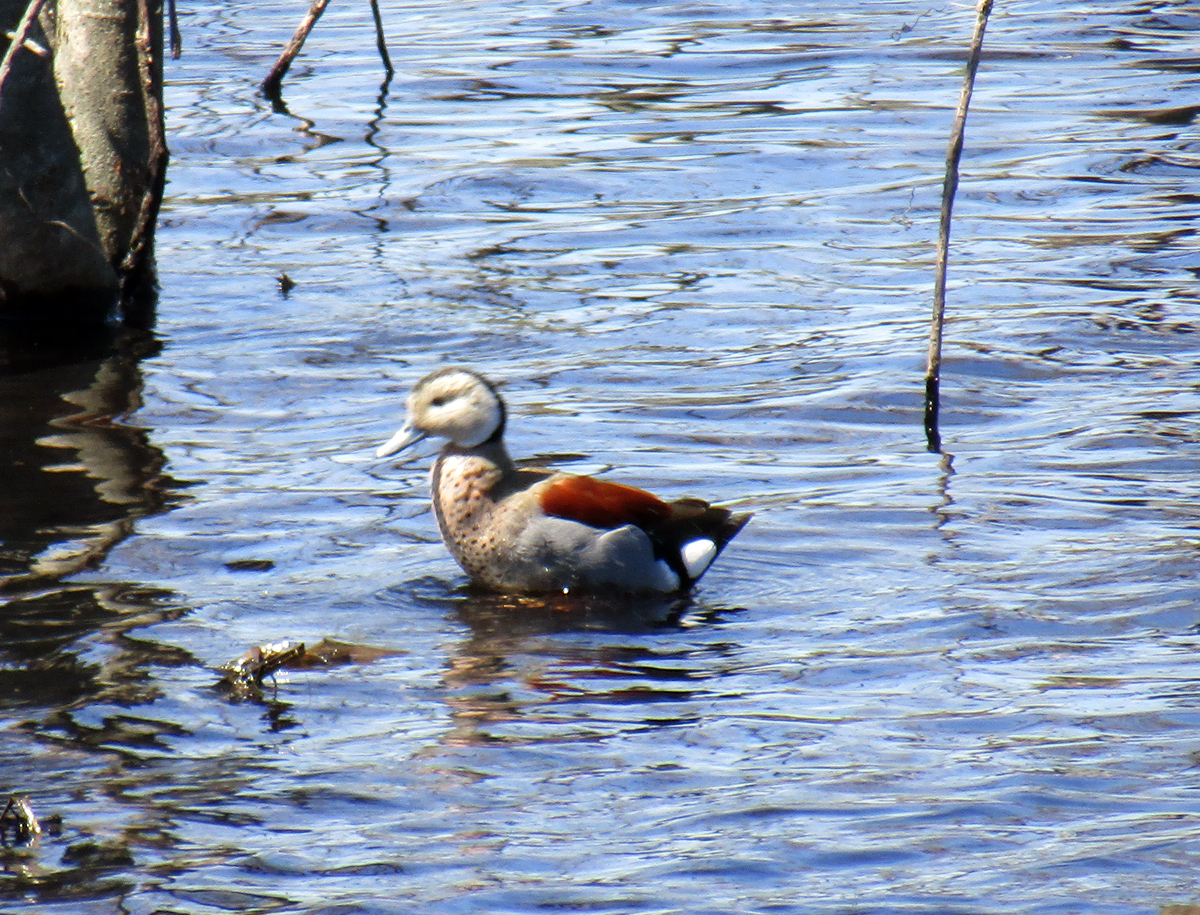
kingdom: Animalia
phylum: Chordata
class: Aves
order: Anseriformes
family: Anatidae
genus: Callonetta
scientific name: Callonetta leucophrys
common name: Ringed teal
